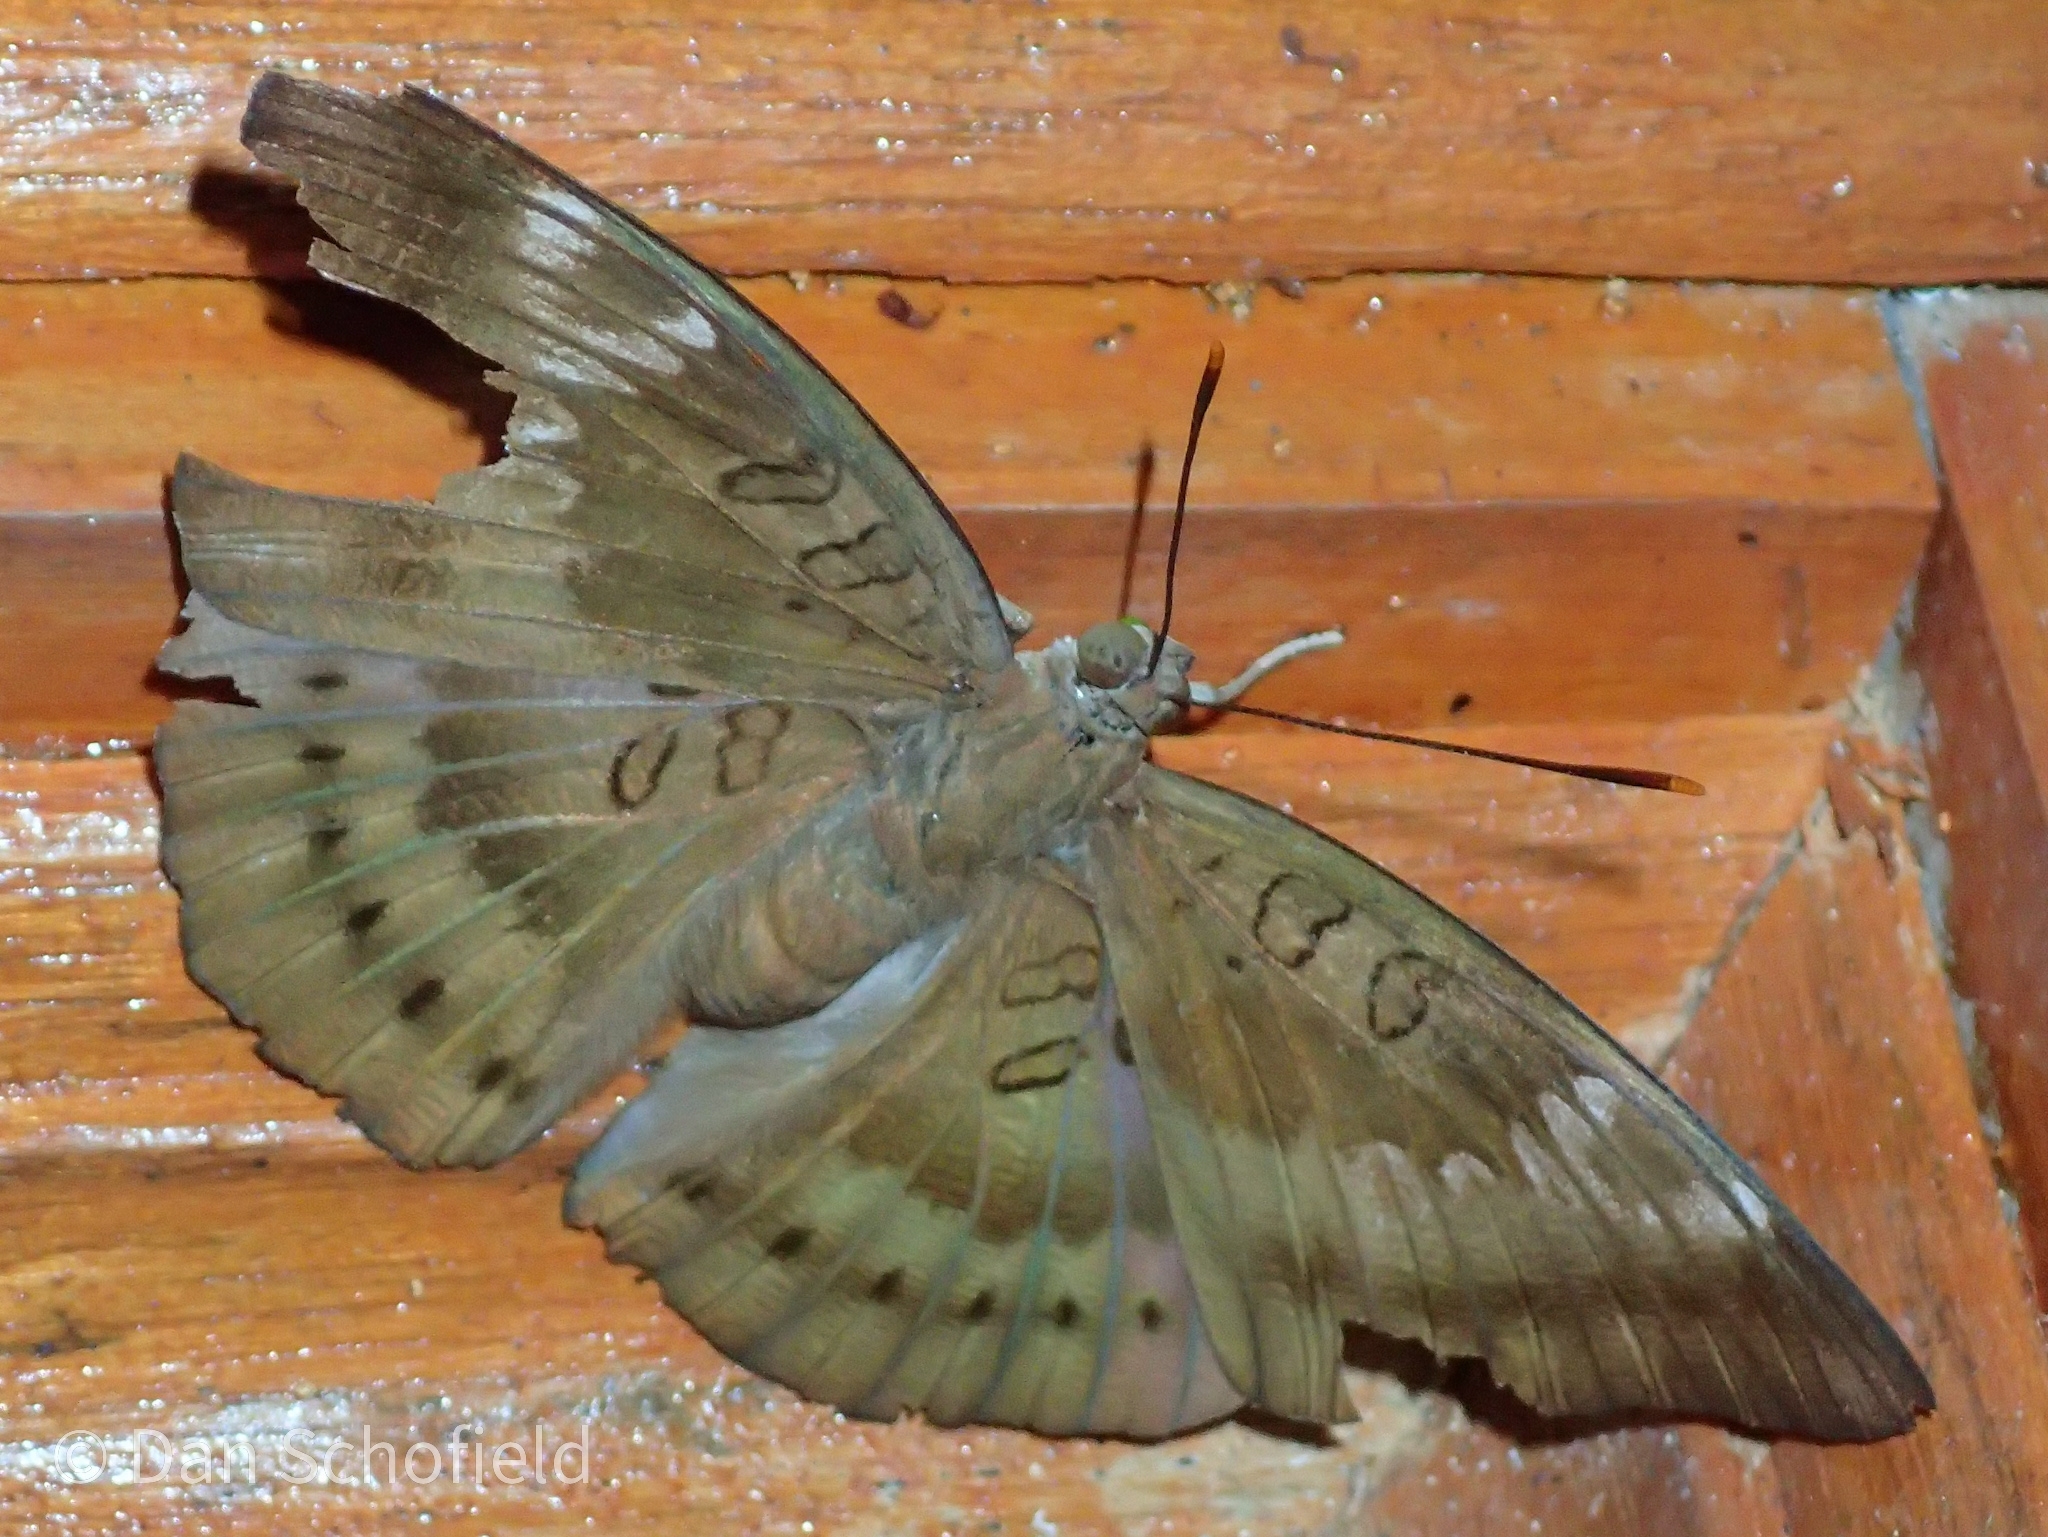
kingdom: Animalia
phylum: Arthropoda
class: Insecta
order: Lepidoptera
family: Nymphalidae
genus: Euthalia
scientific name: Euthalia aconthea
